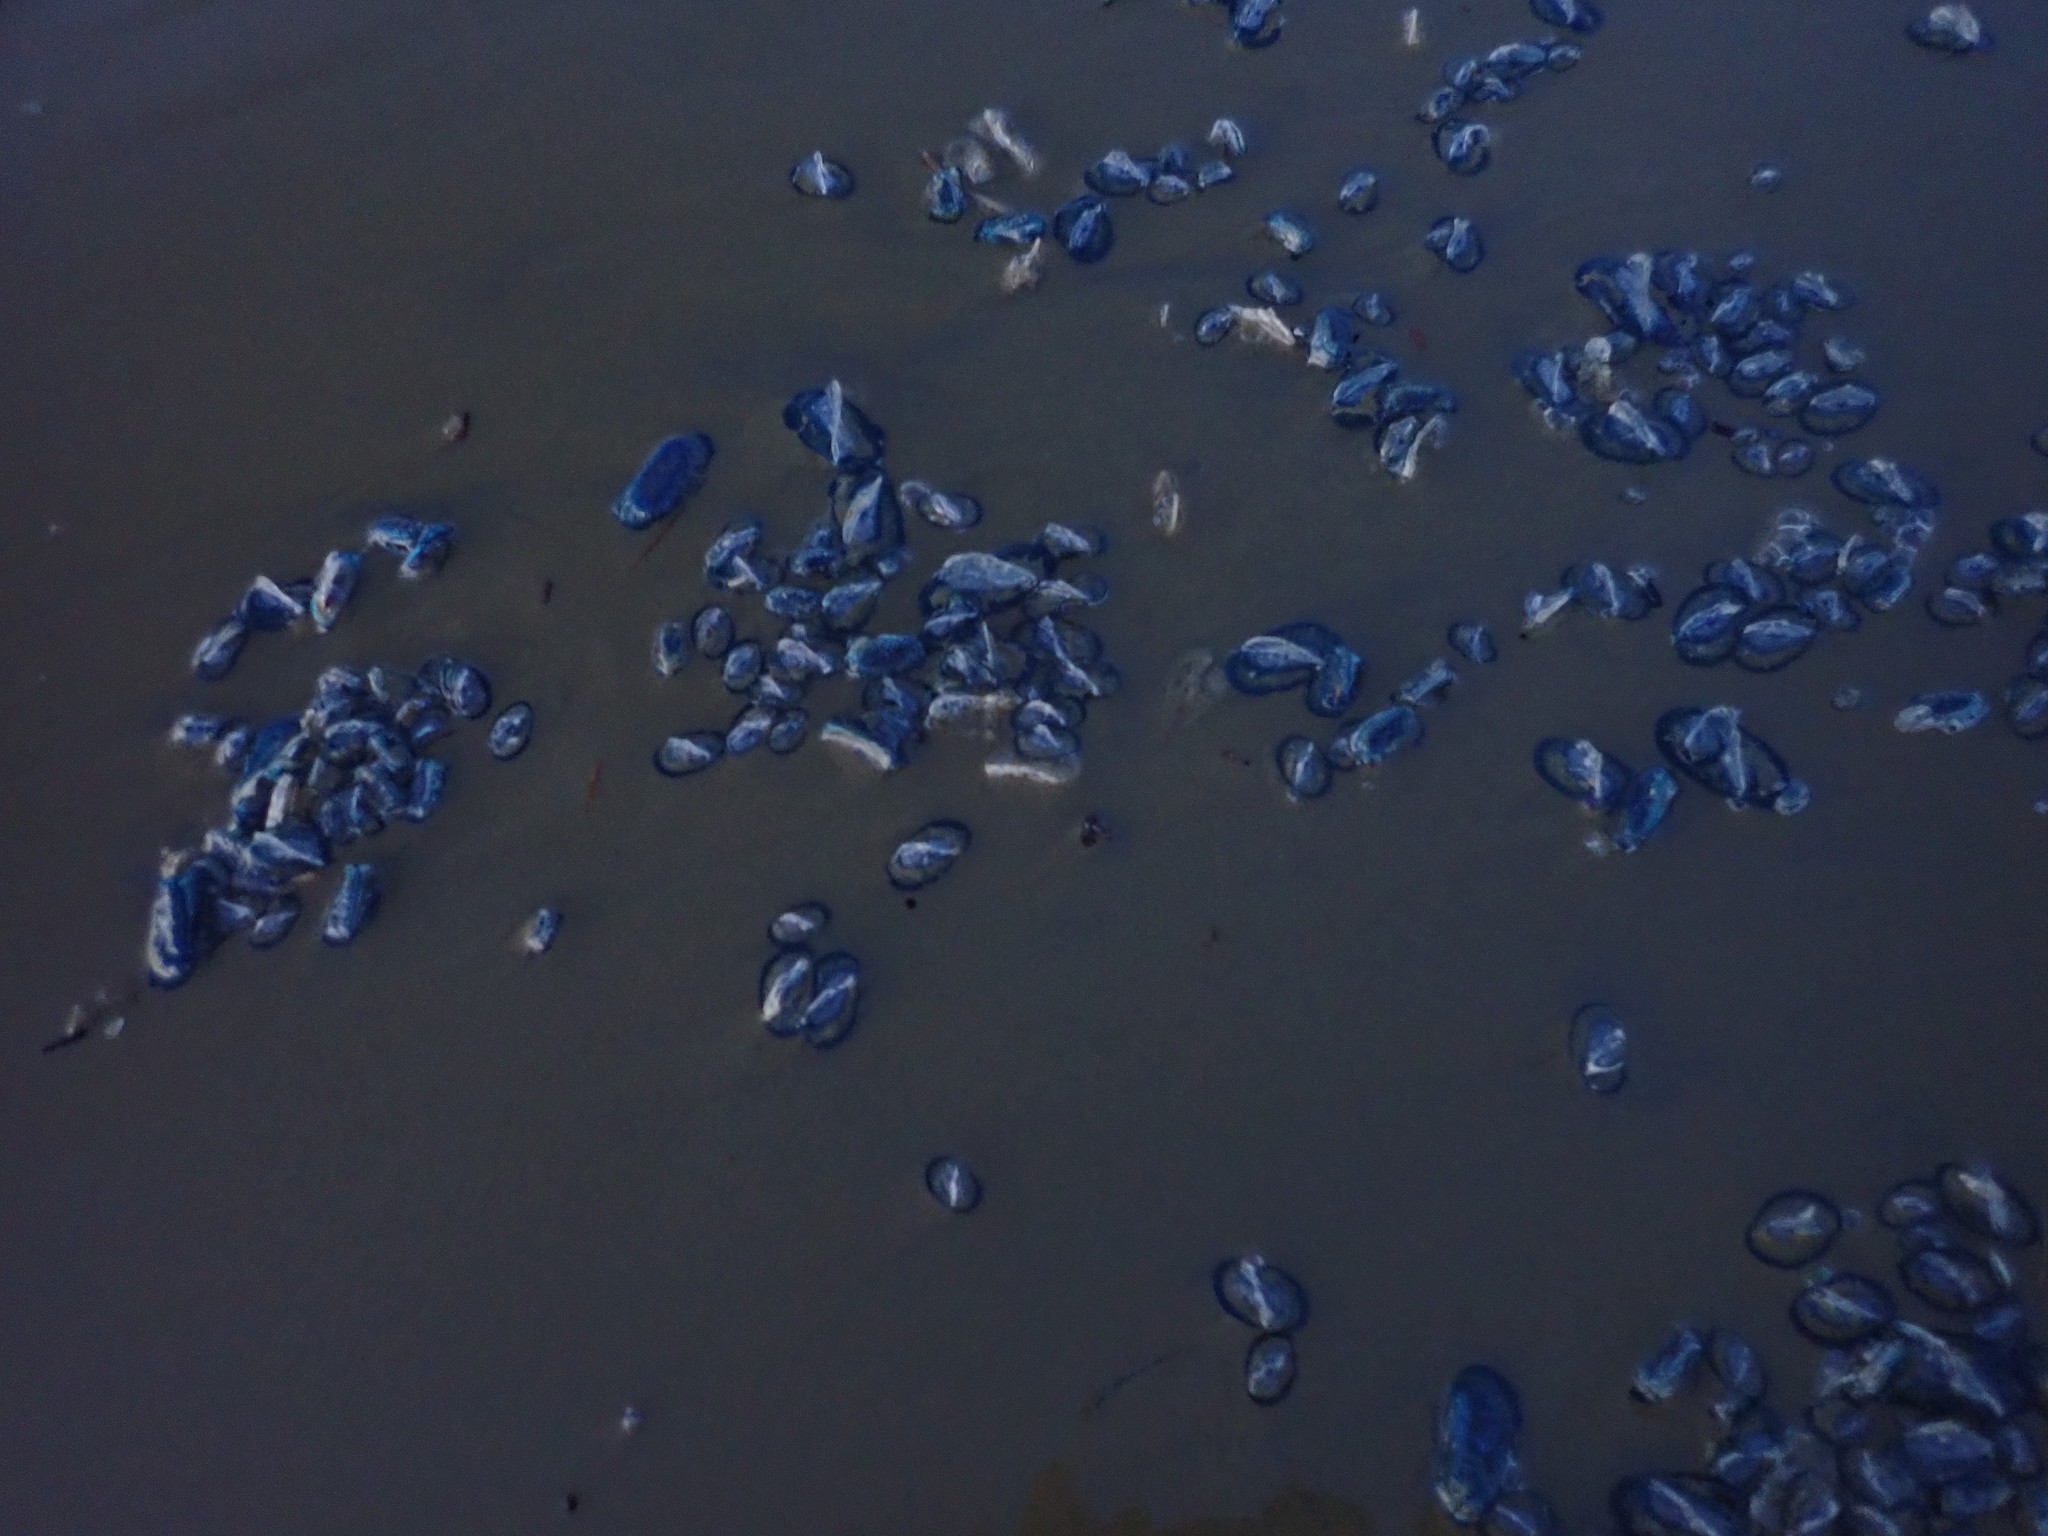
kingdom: Animalia
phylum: Cnidaria
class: Hydrozoa
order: Anthoathecata
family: Porpitidae
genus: Velella
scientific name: Velella velella
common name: By-the-wind-sailor
